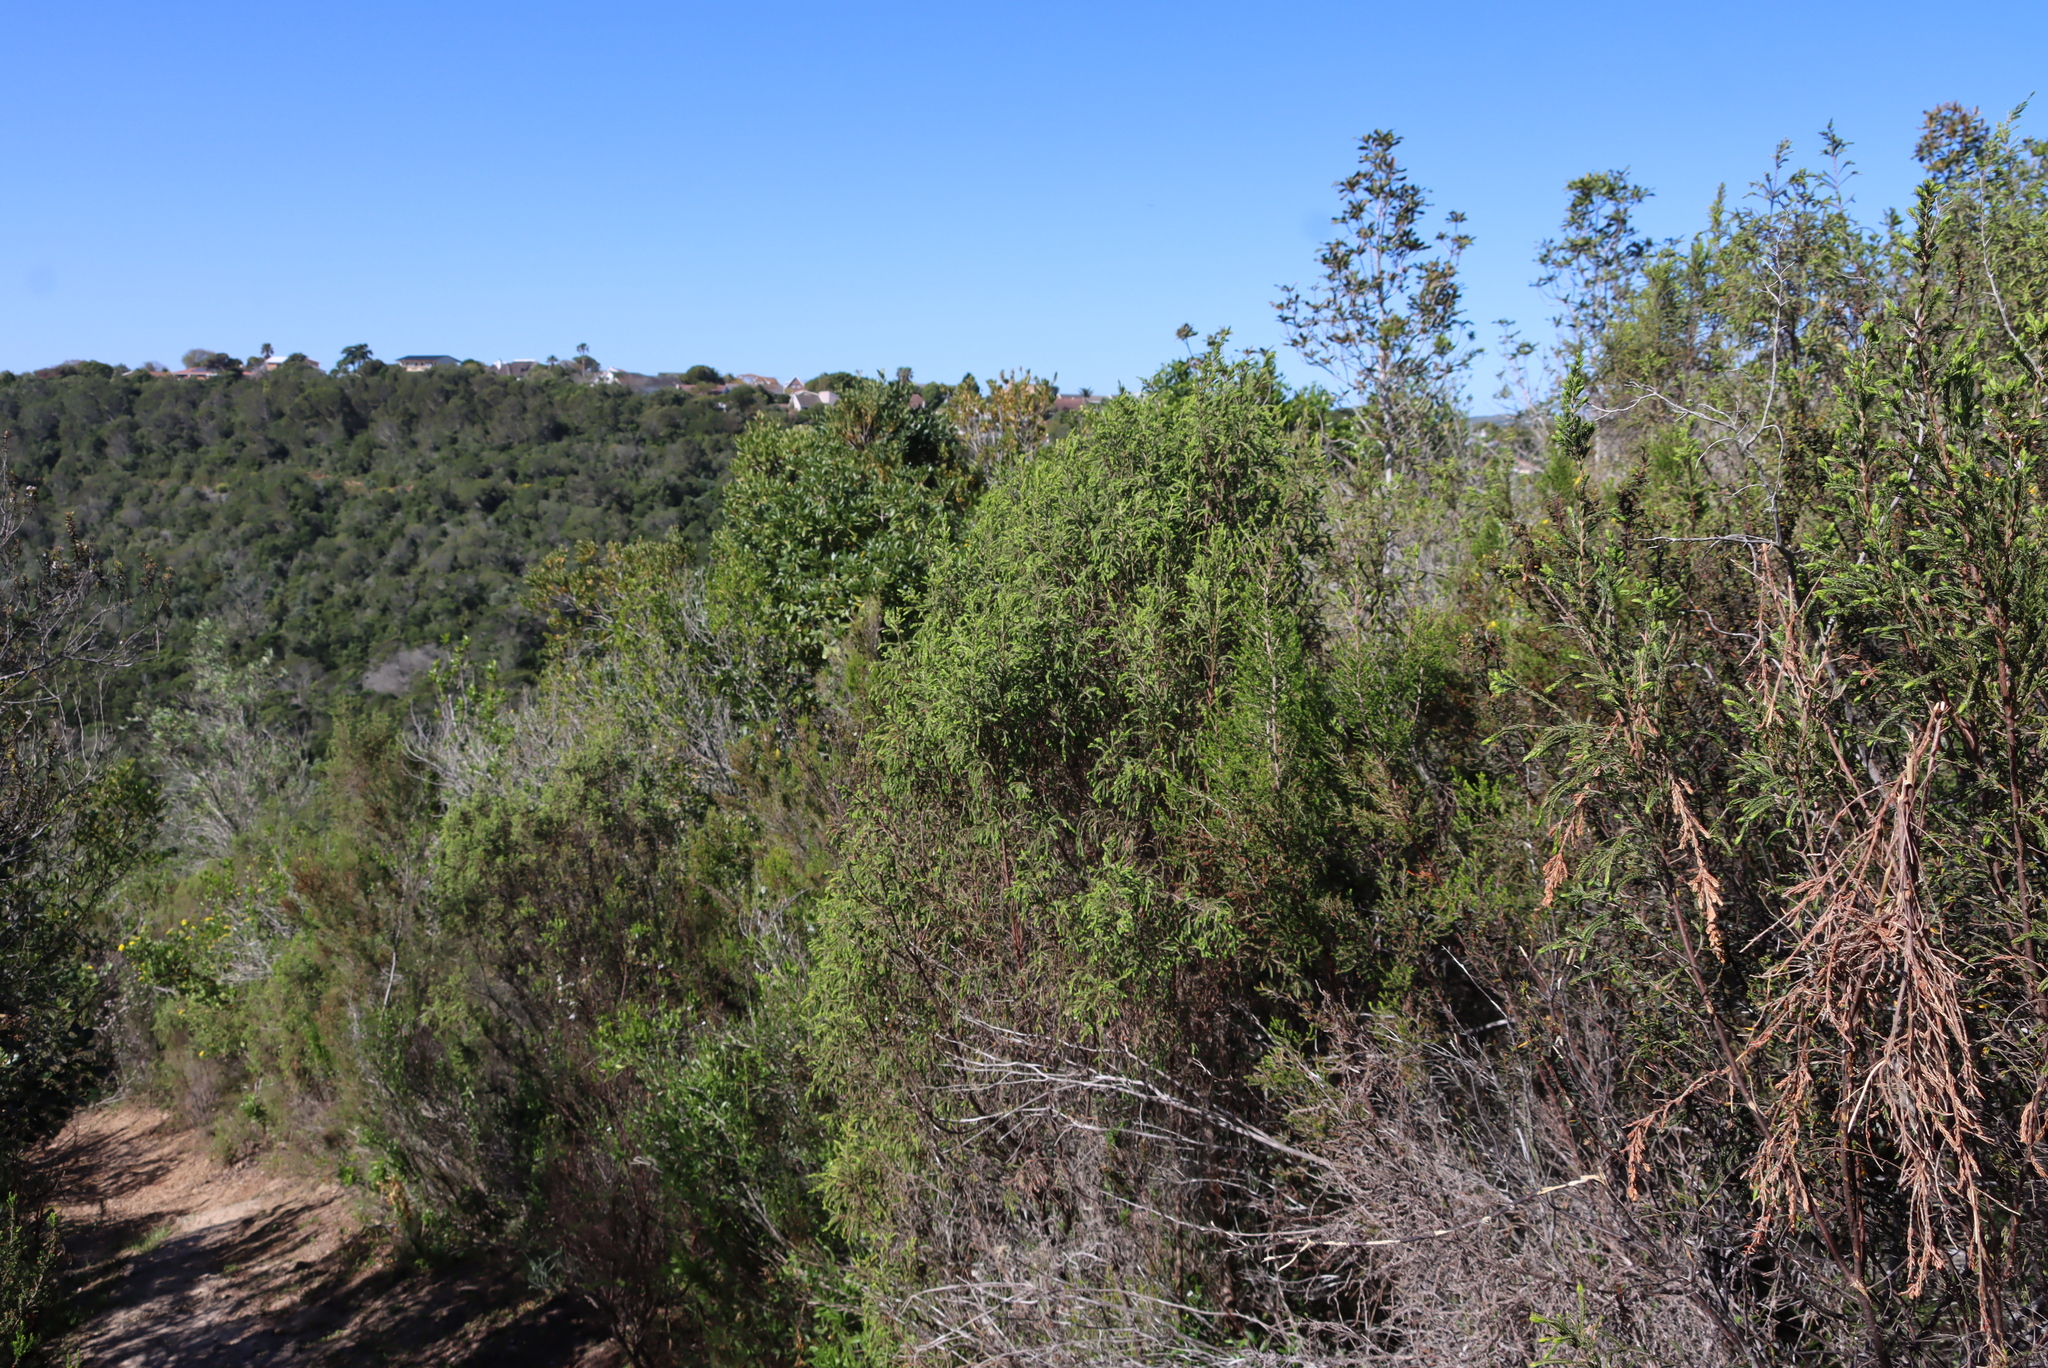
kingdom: Plantae
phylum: Tracheophyta
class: Magnoliopsida
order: Malvales
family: Thymelaeaceae
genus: Passerina
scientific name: Passerina falcifolia
